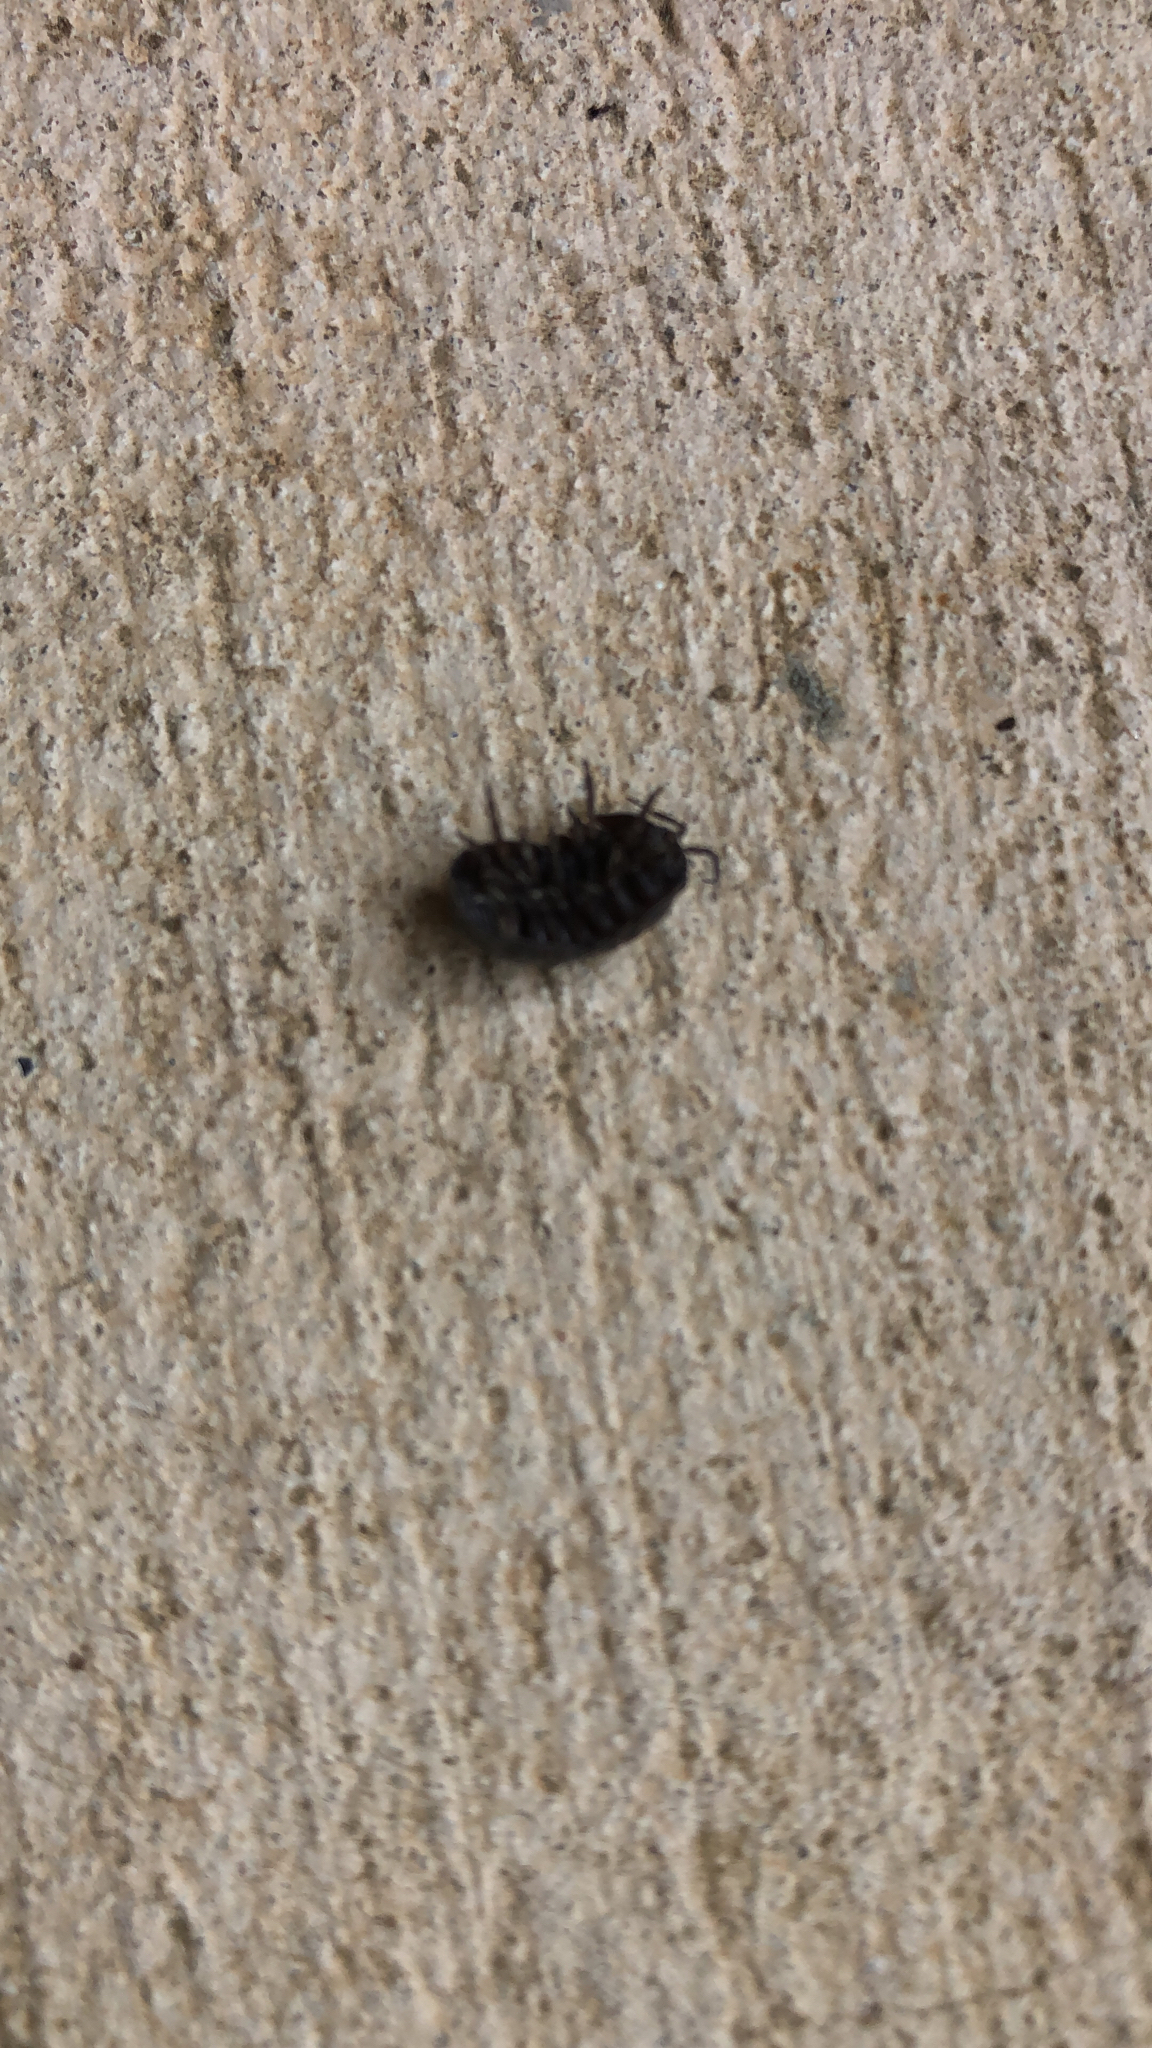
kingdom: Animalia
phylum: Arthropoda
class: Malacostraca
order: Isopoda
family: Armadillidiidae
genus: Armadillidium
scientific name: Armadillidium vulgare
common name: Common pill woodlouse
